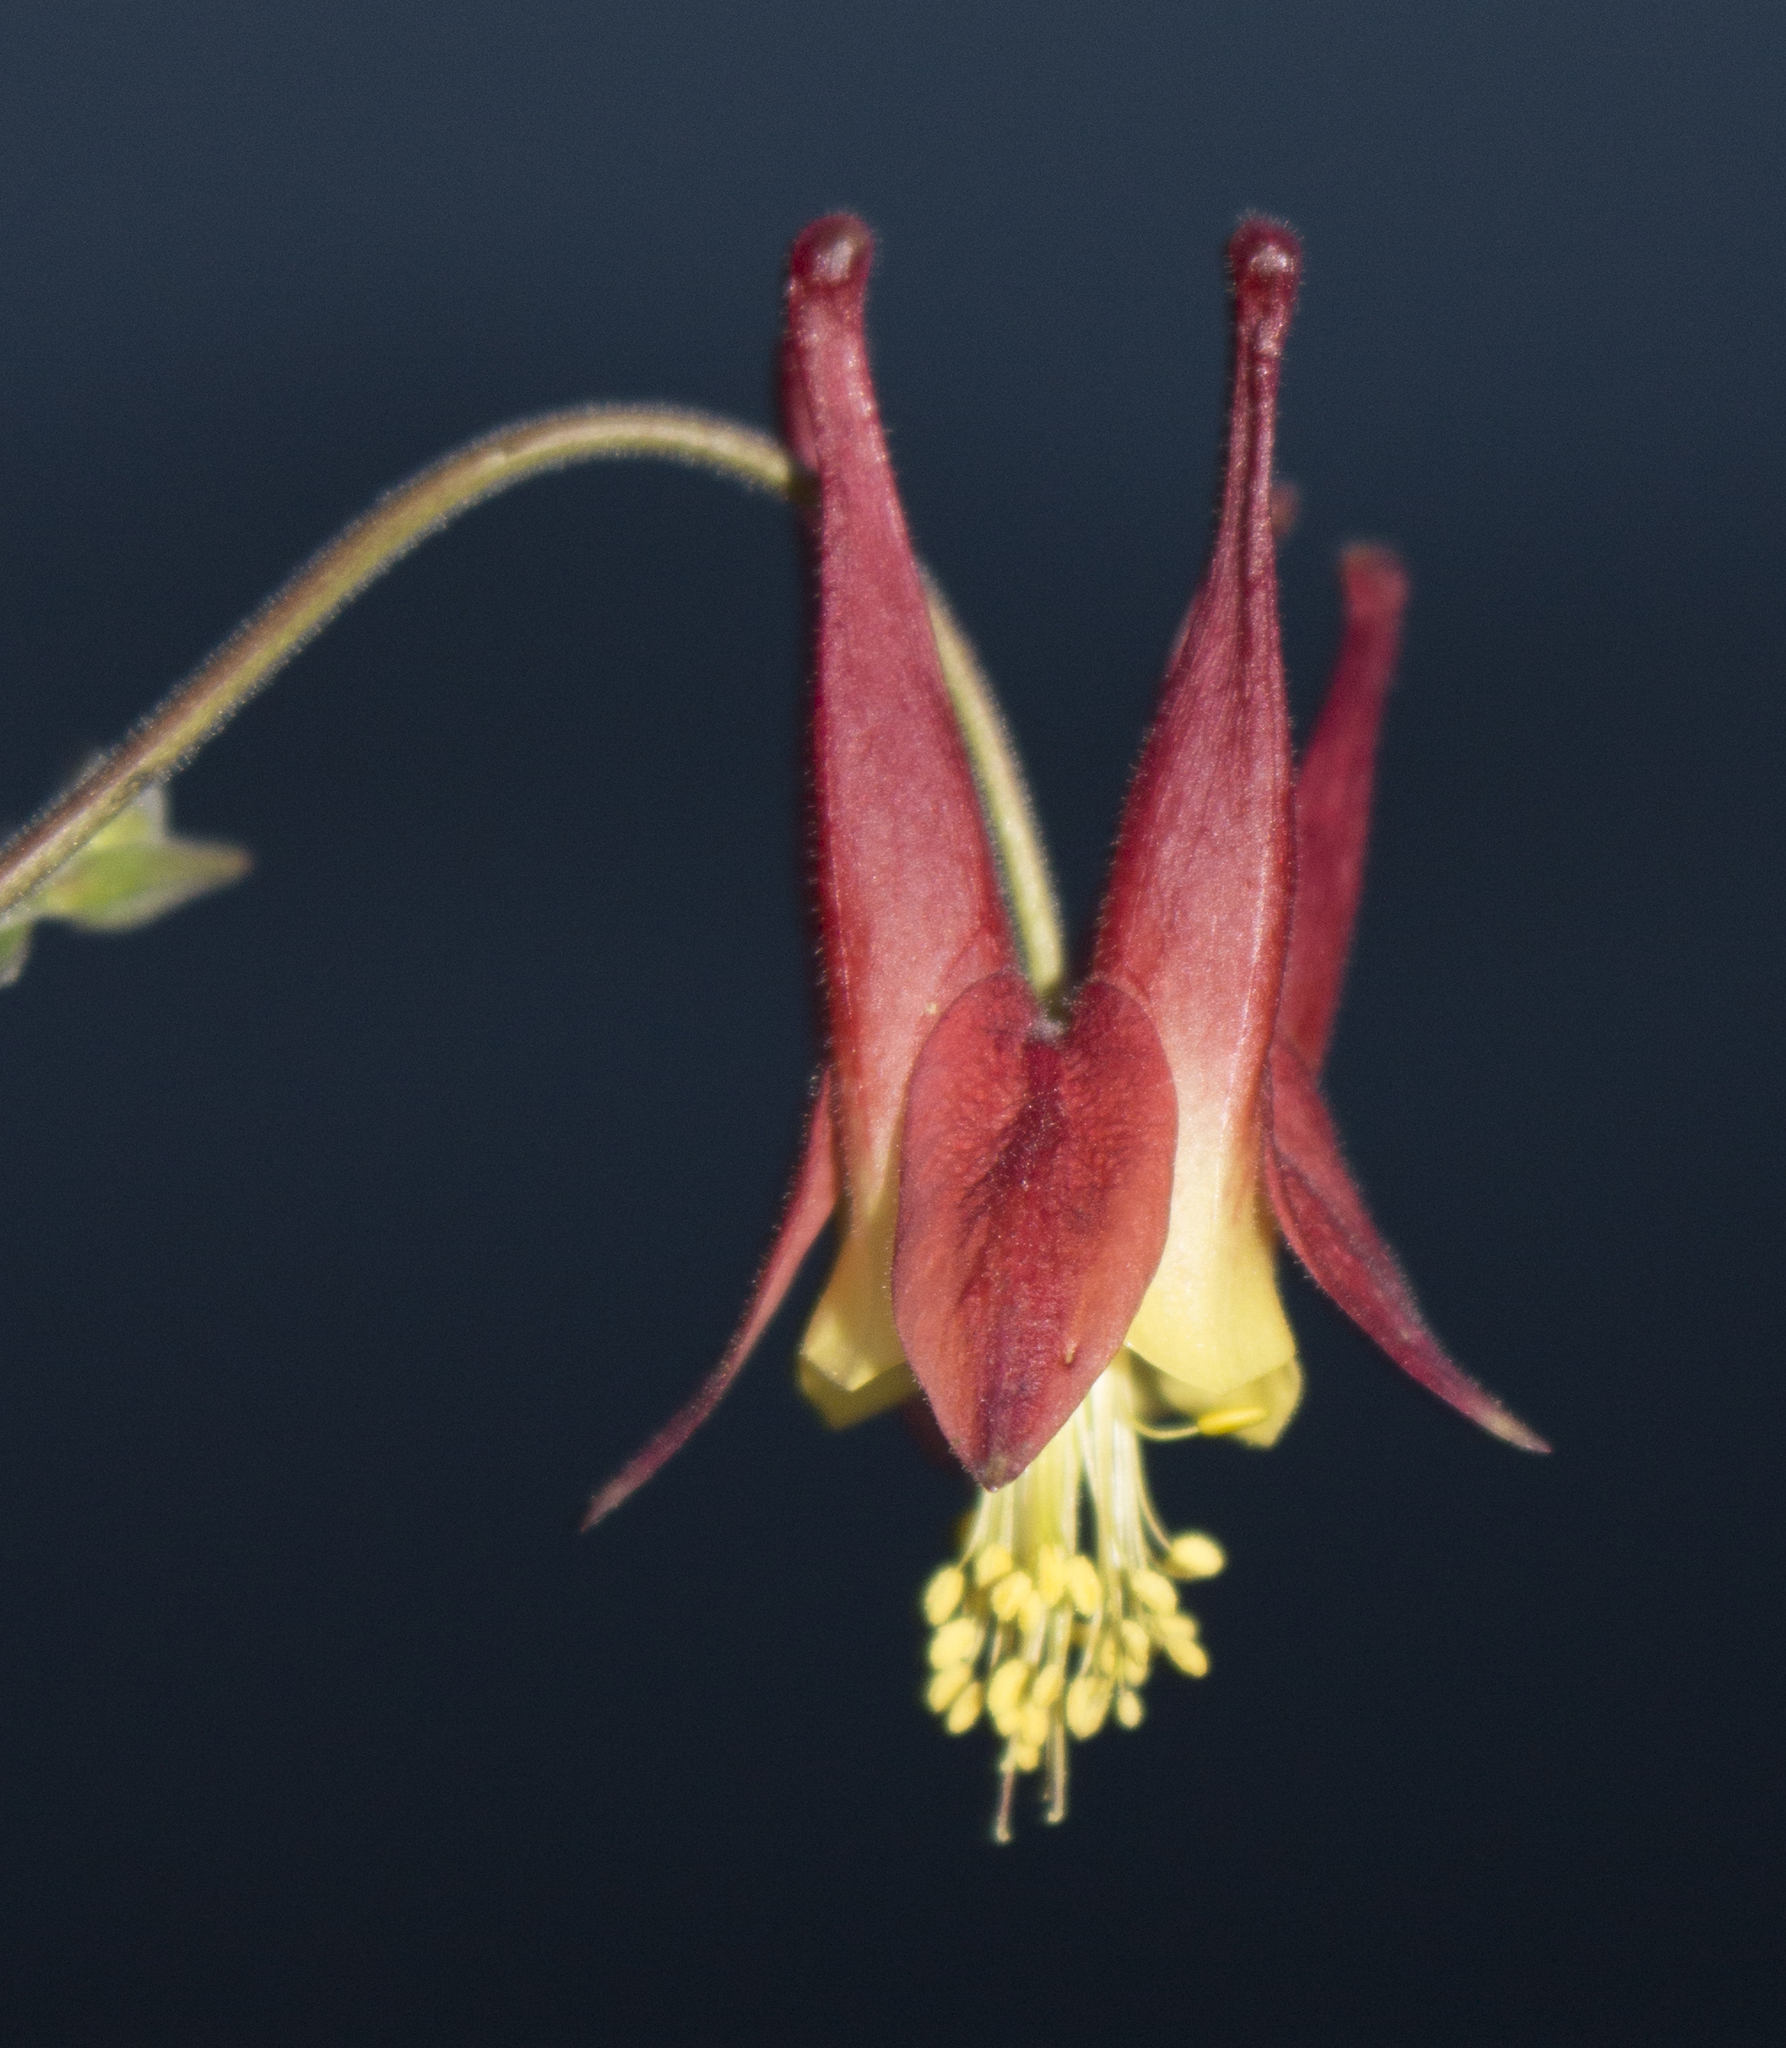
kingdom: Plantae
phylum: Tracheophyta
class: Magnoliopsida
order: Ranunculales
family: Ranunculaceae
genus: Aquilegia
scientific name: Aquilegia canadensis
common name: American columbine
